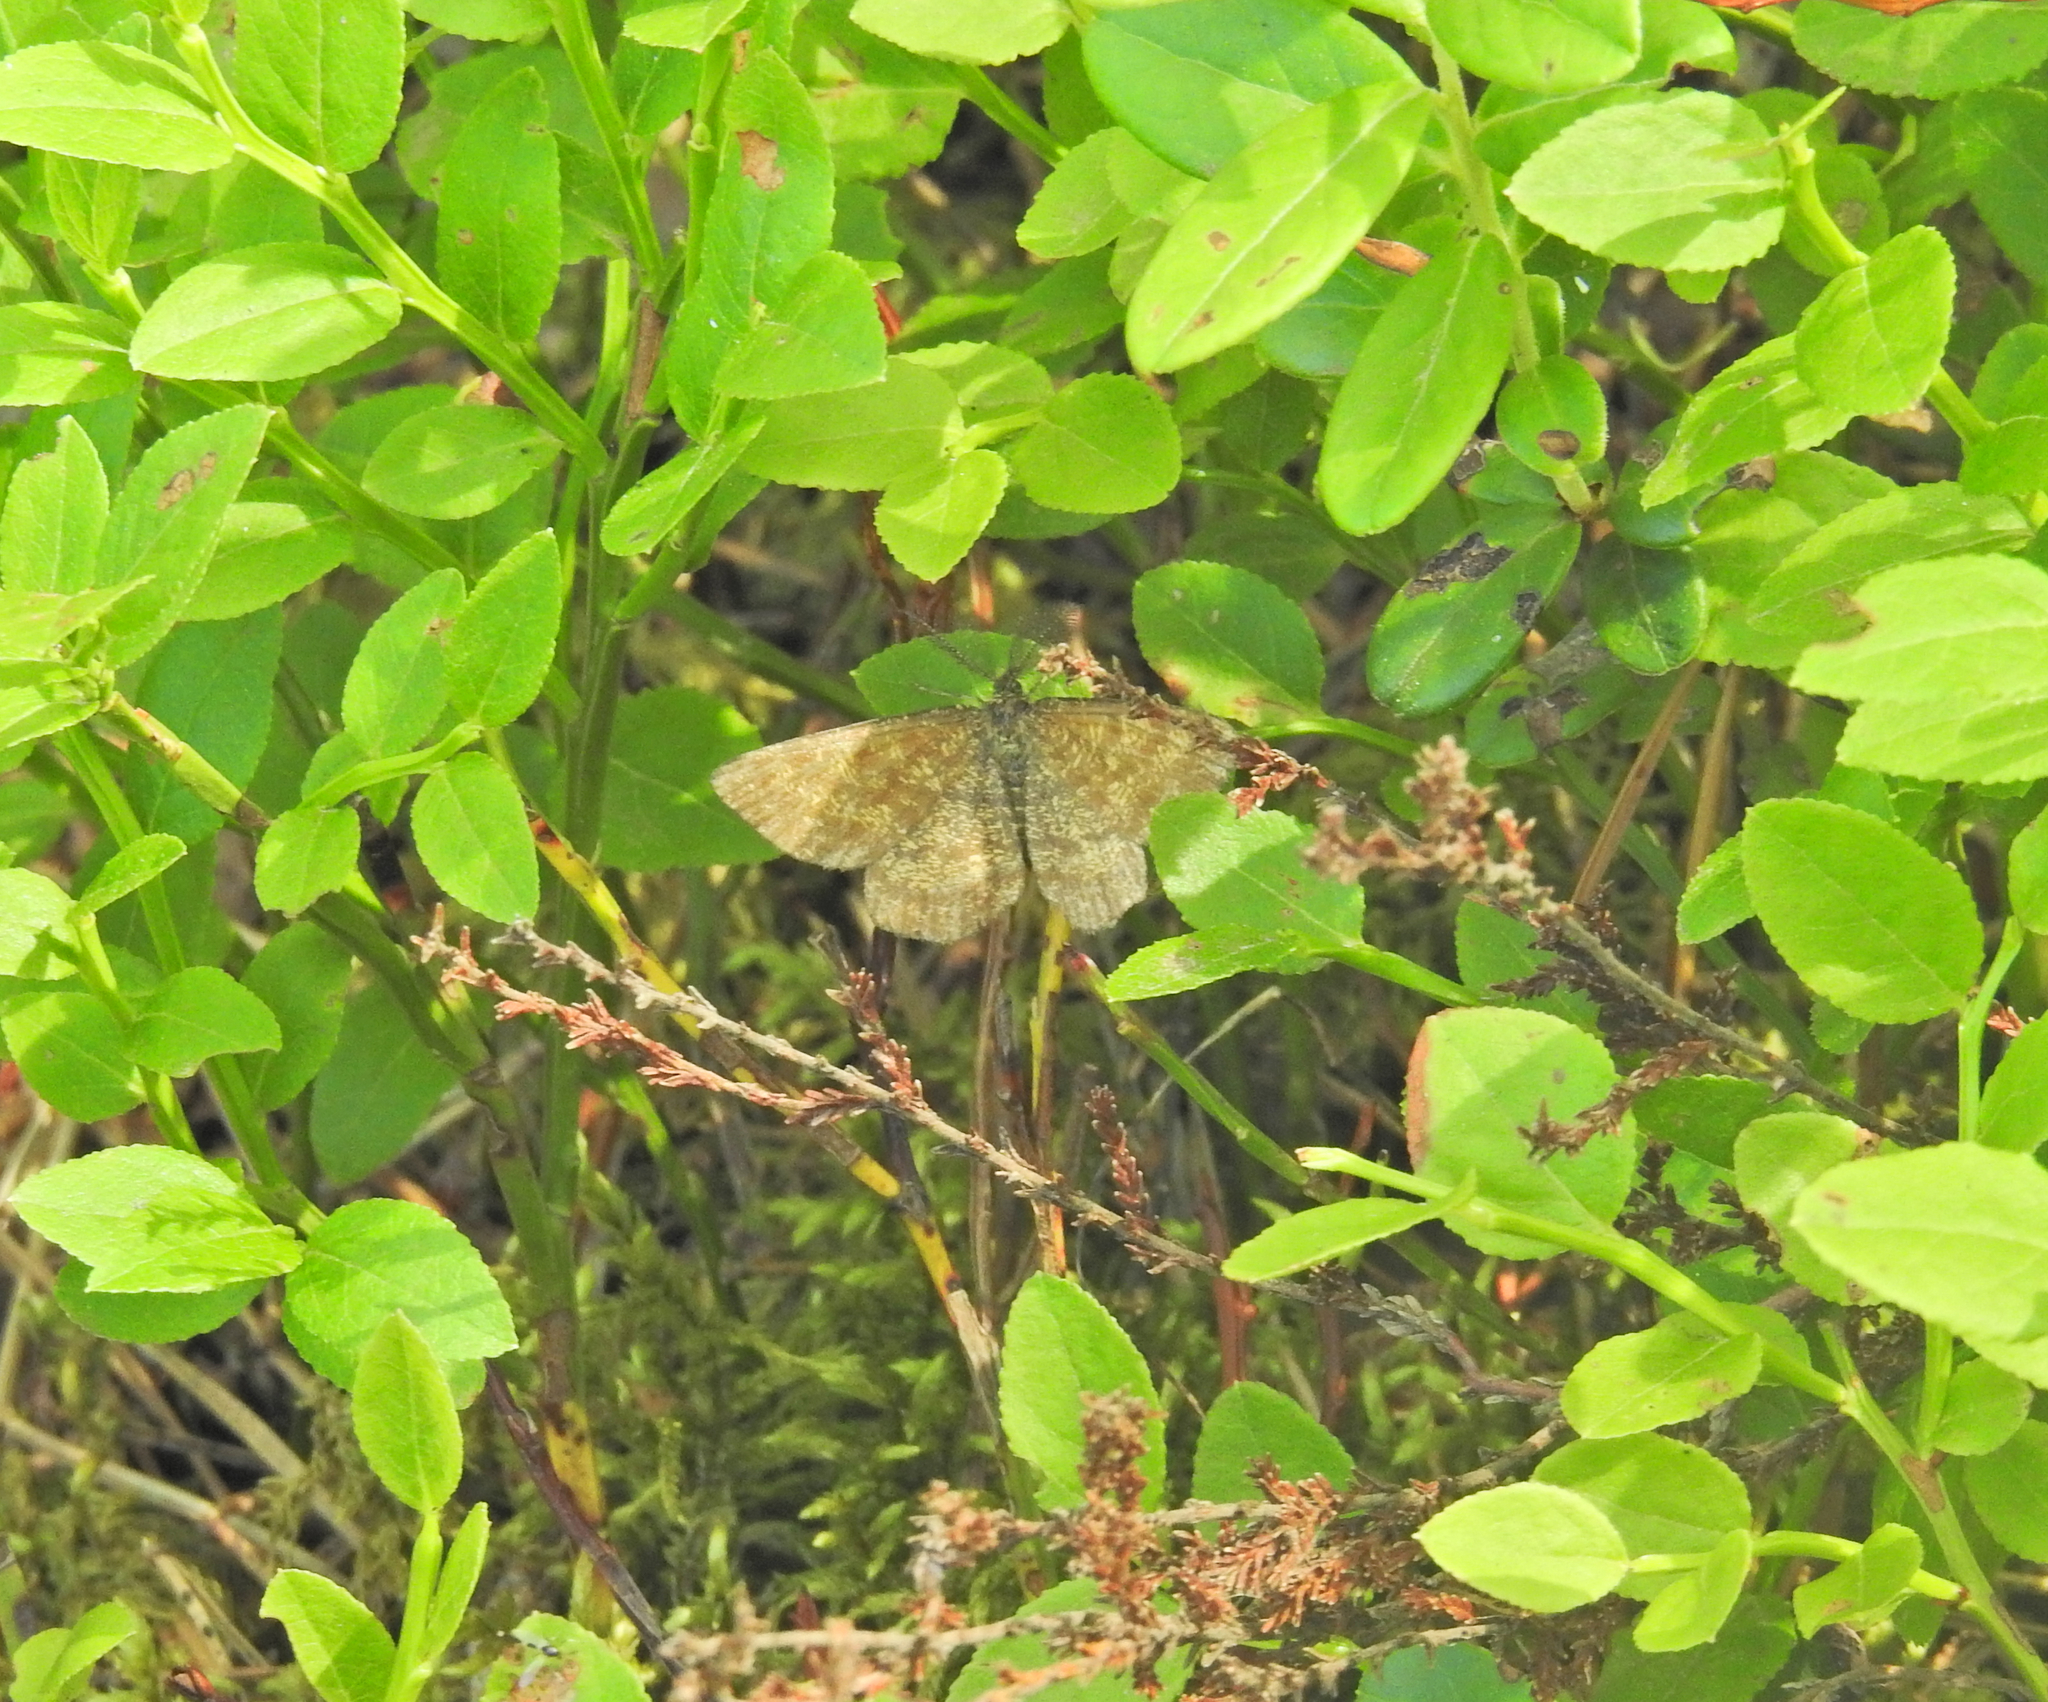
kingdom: Animalia
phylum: Arthropoda
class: Insecta
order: Lepidoptera
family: Geometridae
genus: Ematurga
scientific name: Ematurga atomaria
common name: Common heath
